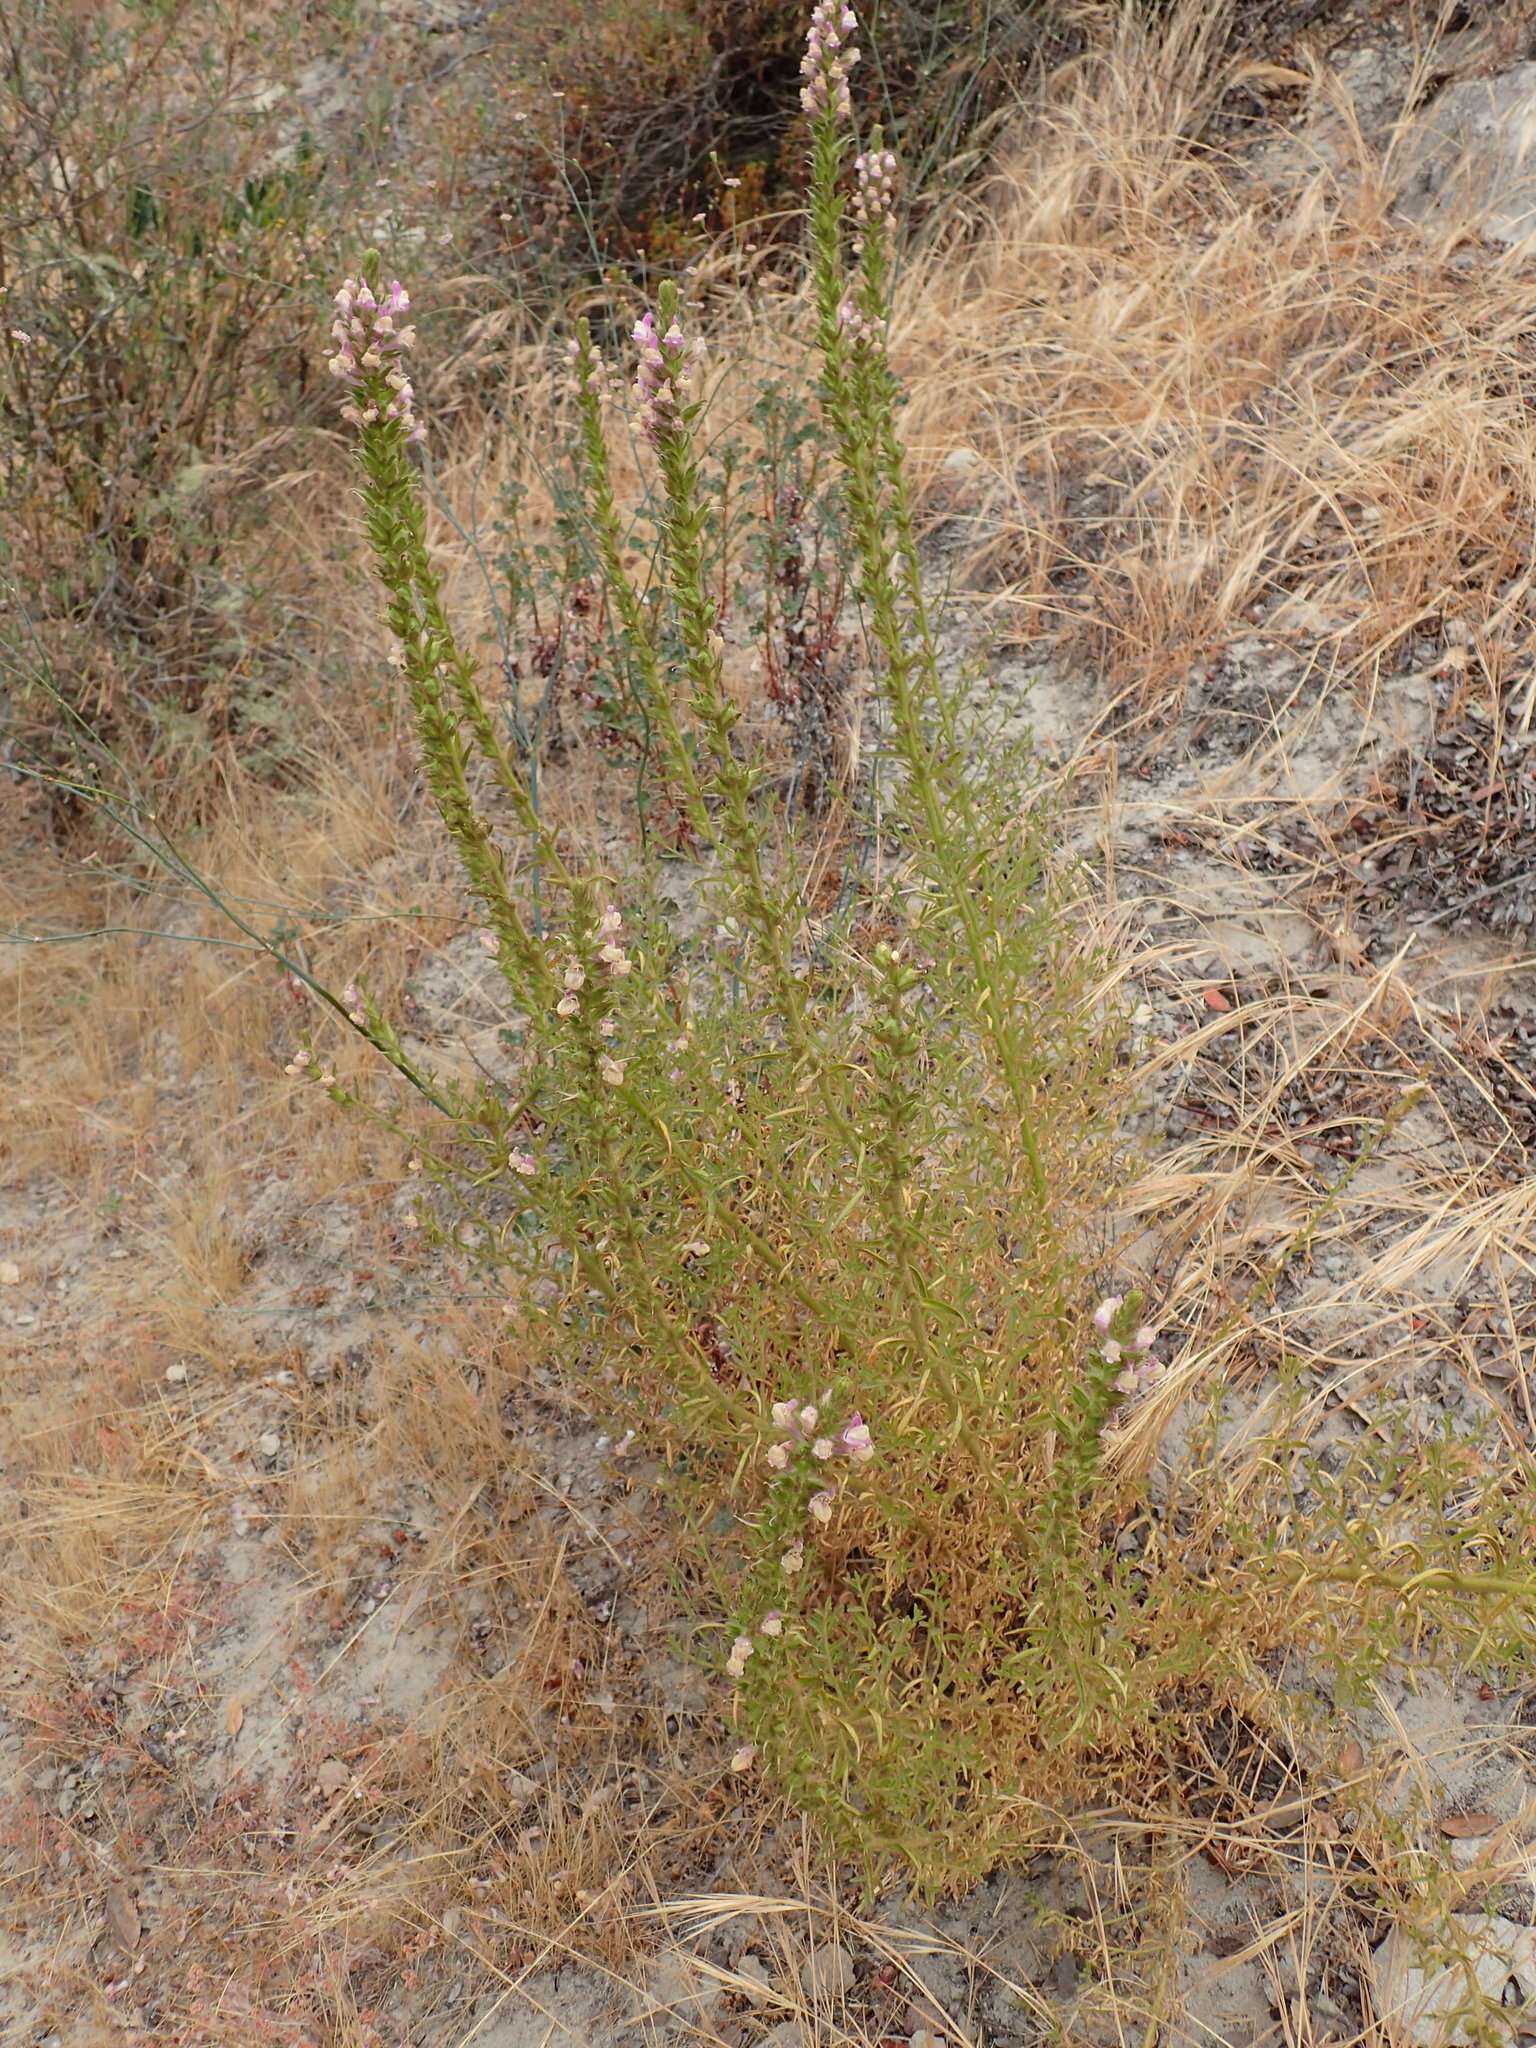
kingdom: Plantae
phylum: Tracheophyta
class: Magnoliopsida
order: Lamiales
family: Plantaginaceae
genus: Sairocarpus
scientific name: Sairocarpus multiflorus
